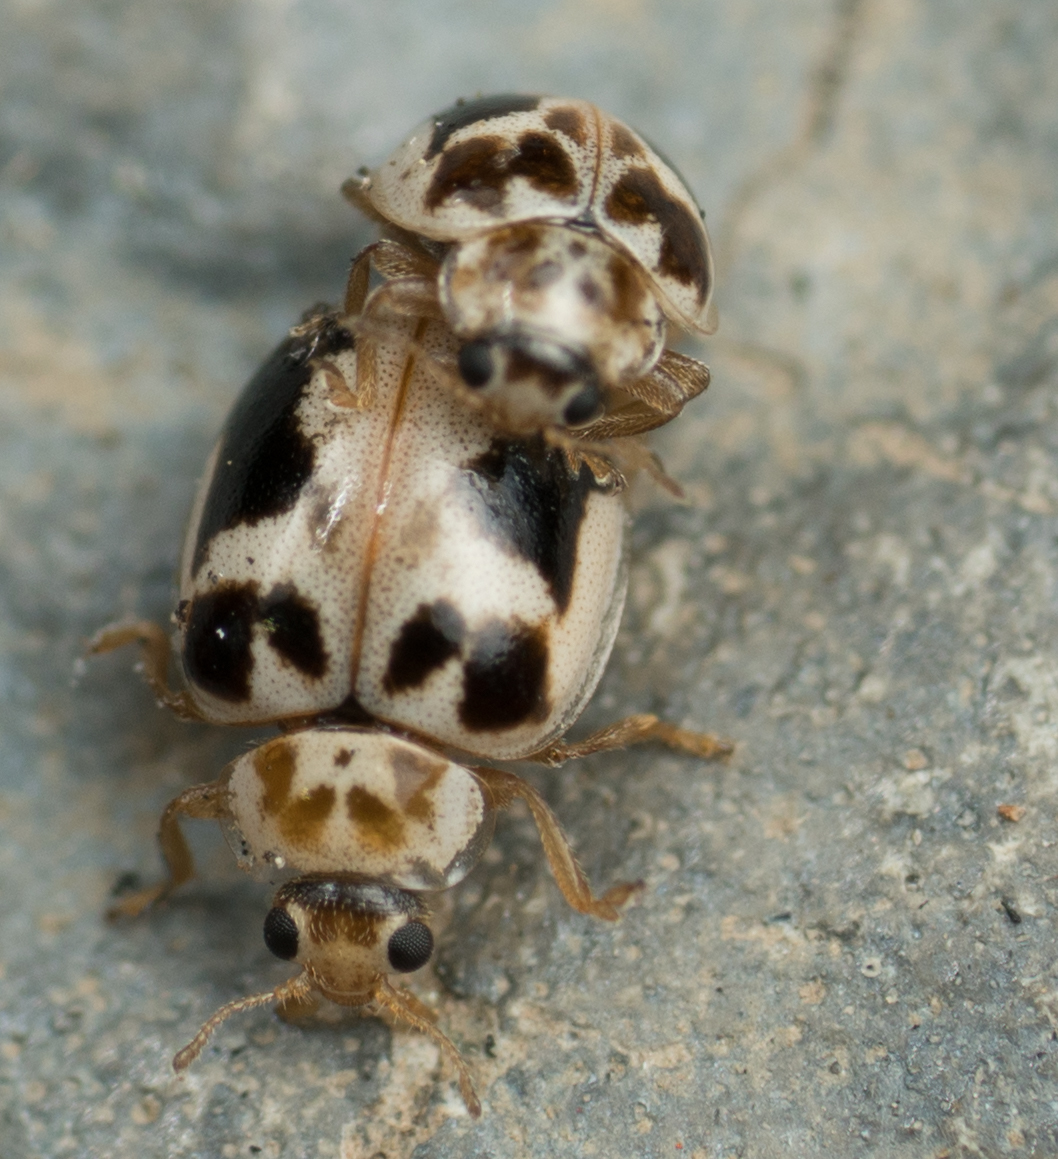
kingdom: Animalia
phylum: Arthropoda
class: Insecta
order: Coleoptera
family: Coccinellidae
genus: Psyllobora
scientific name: Psyllobora renifer
